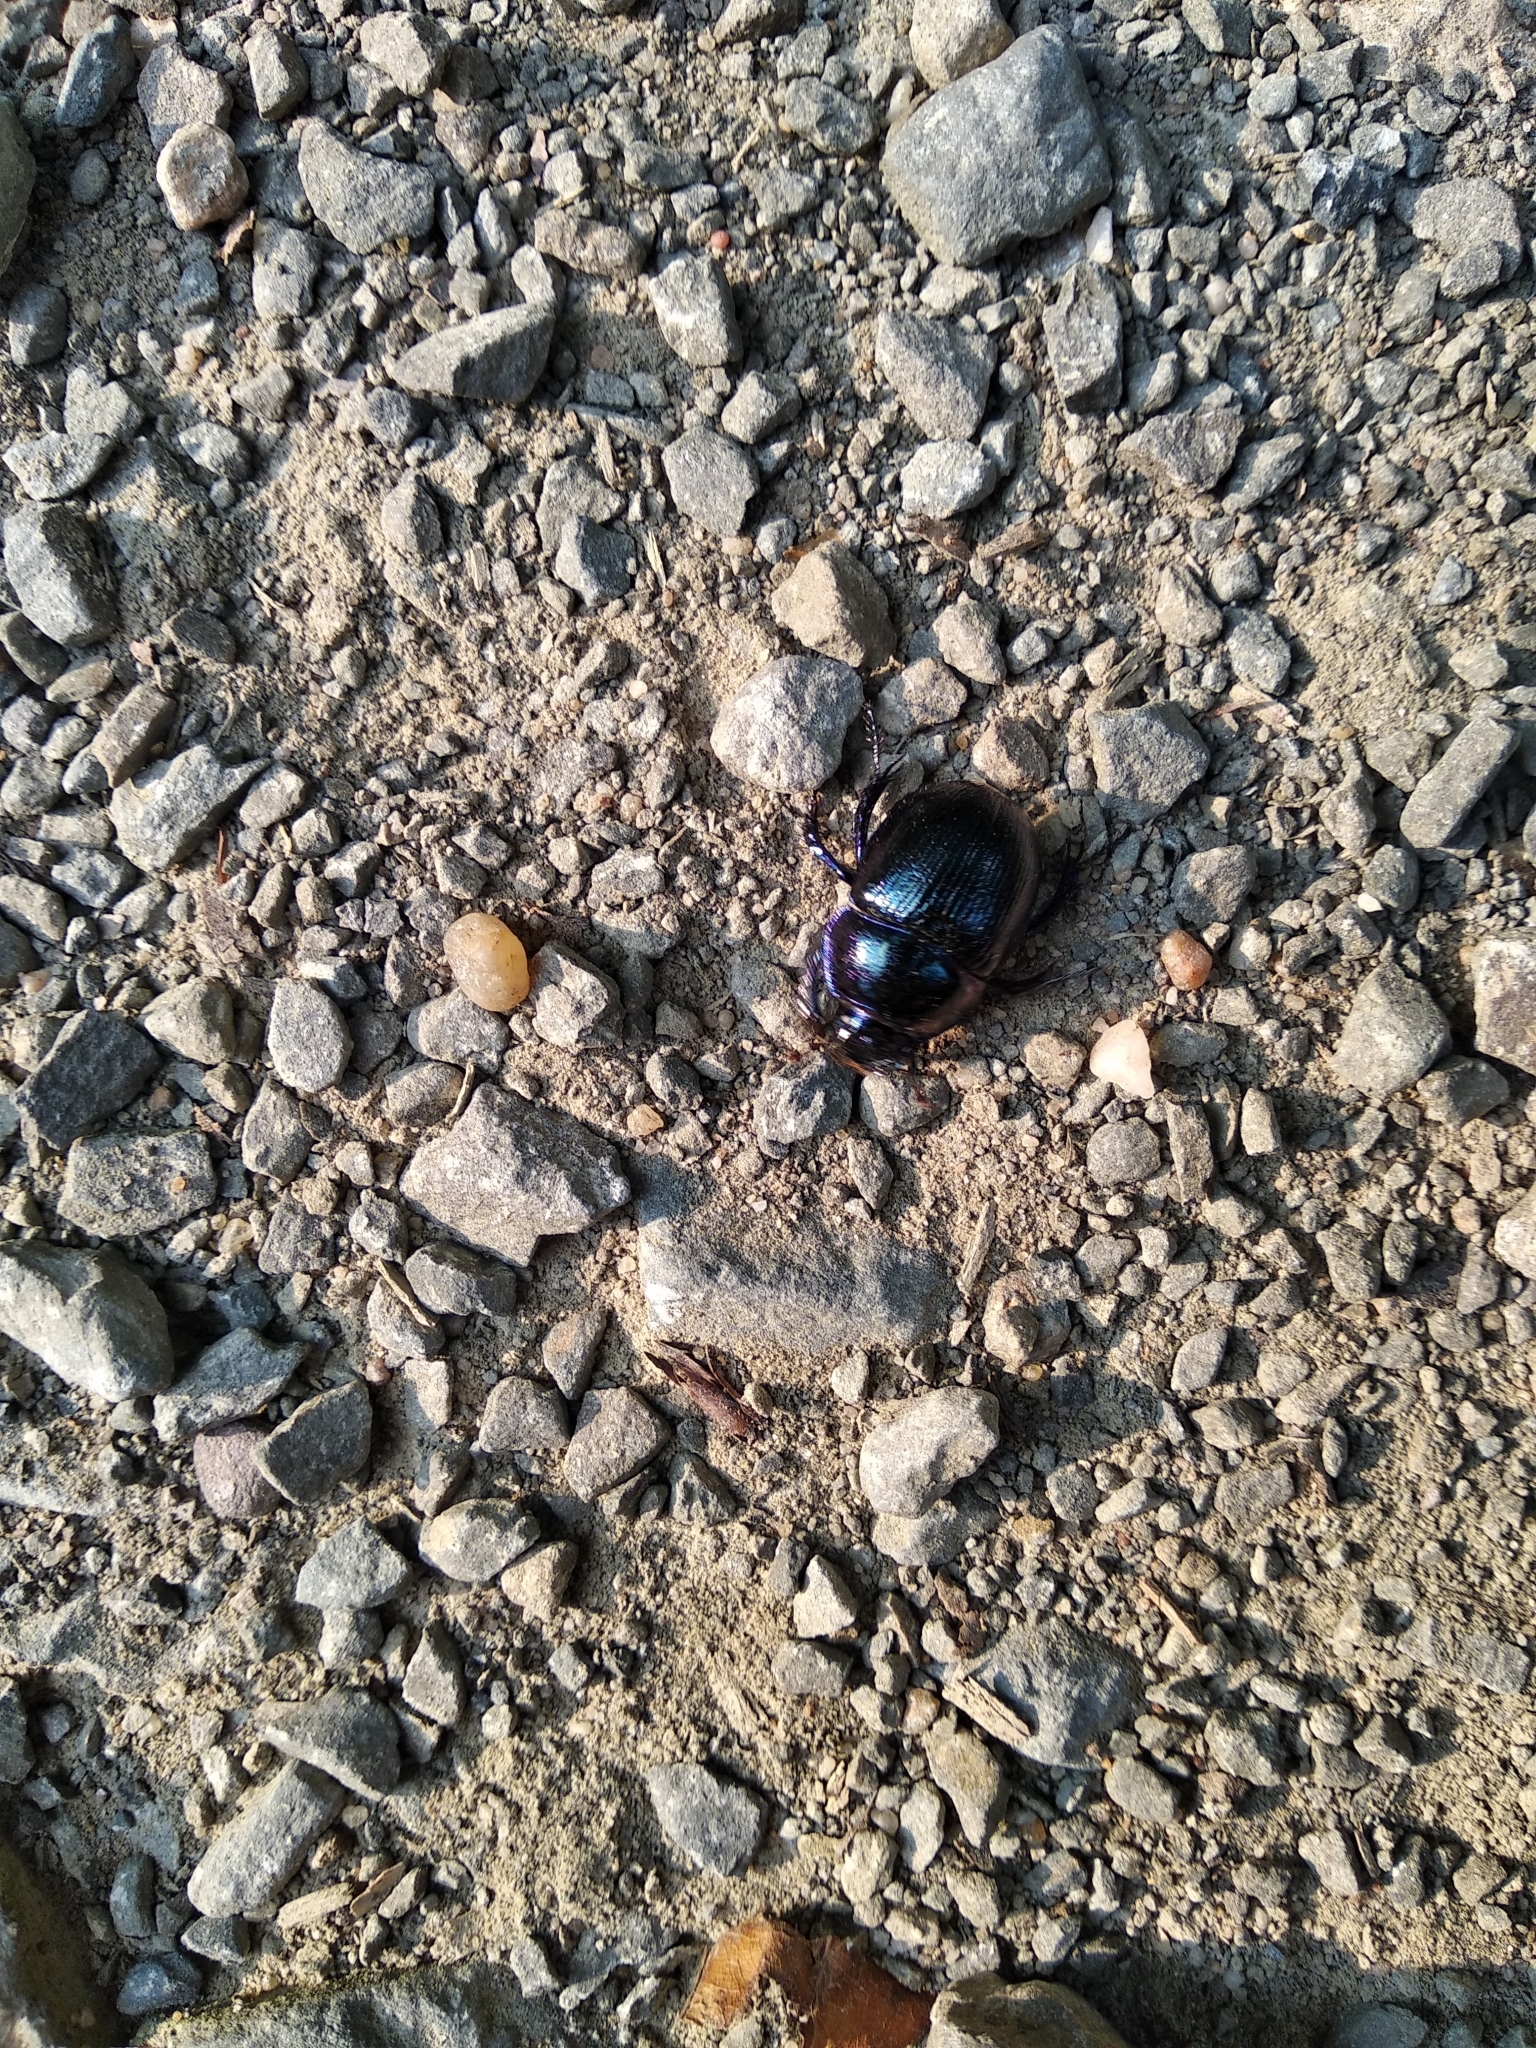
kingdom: Animalia
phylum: Arthropoda
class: Insecta
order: Coleoptera
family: Geotrupidae
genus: Anoplotrupes
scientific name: Anoplotrupes stercorosus
